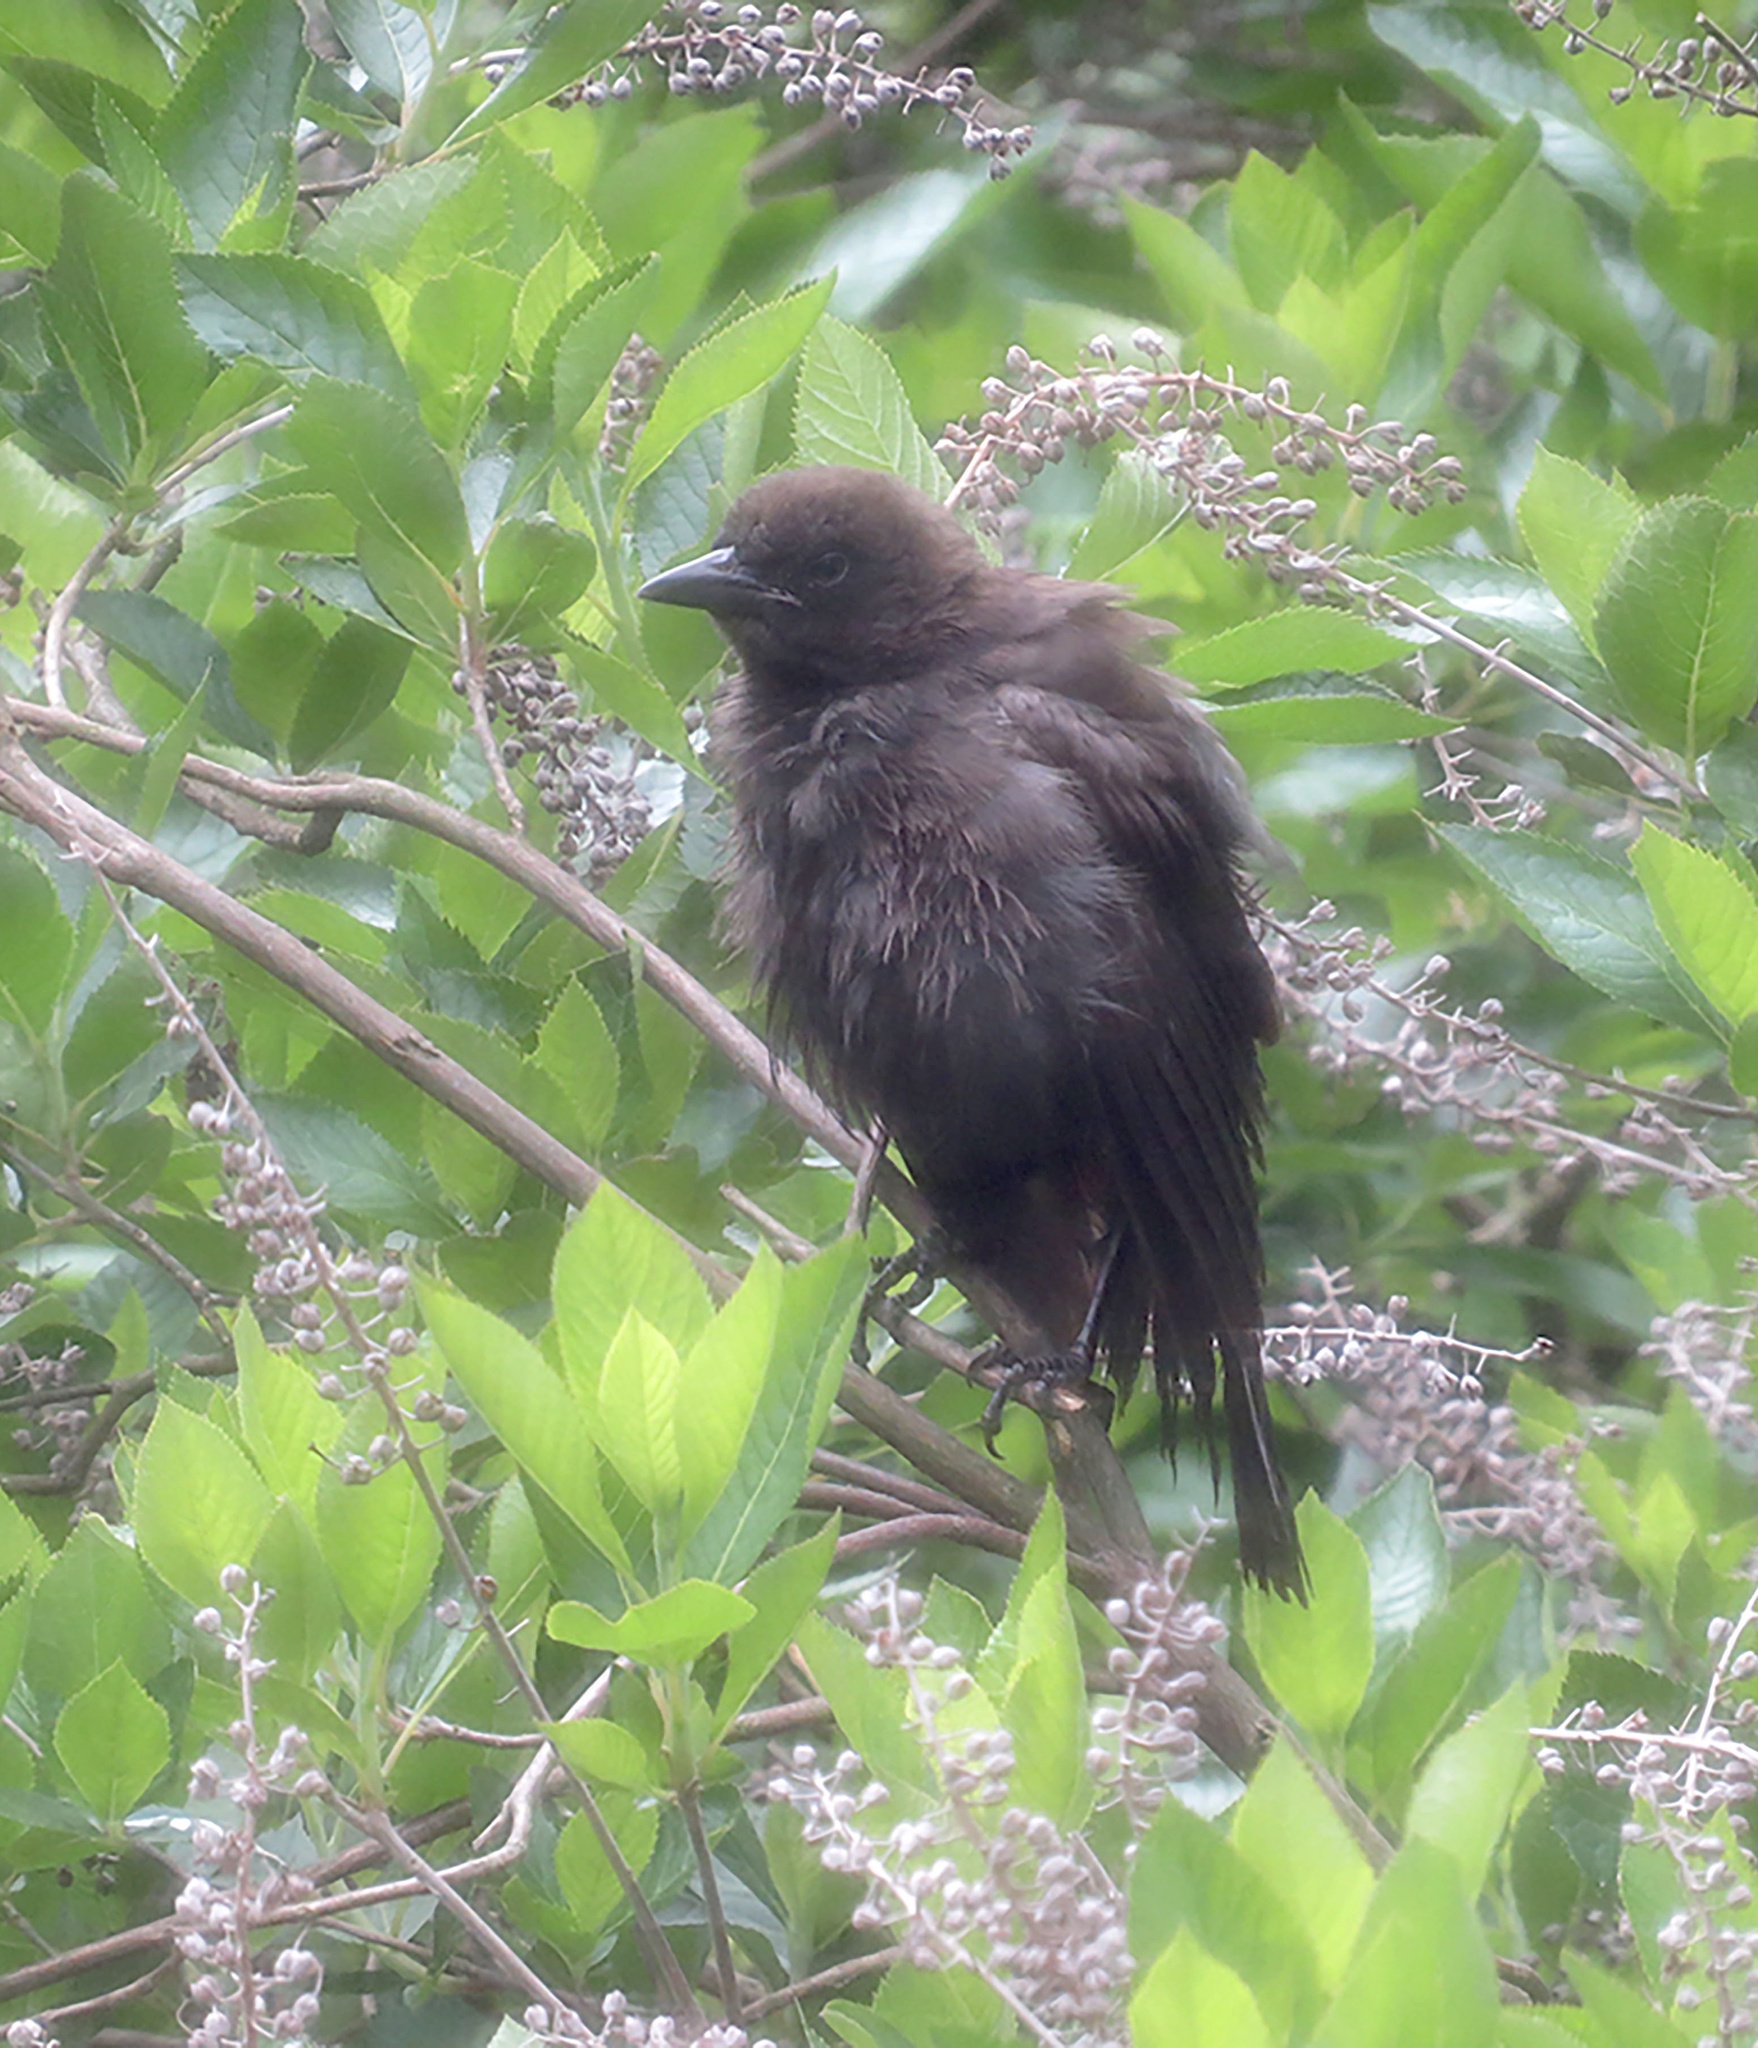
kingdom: Animalia
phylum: Chordata
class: Aves
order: Passeriformes
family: Icteridae
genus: Quiscalus
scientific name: Quiscalus quiscula
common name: Common grackle
